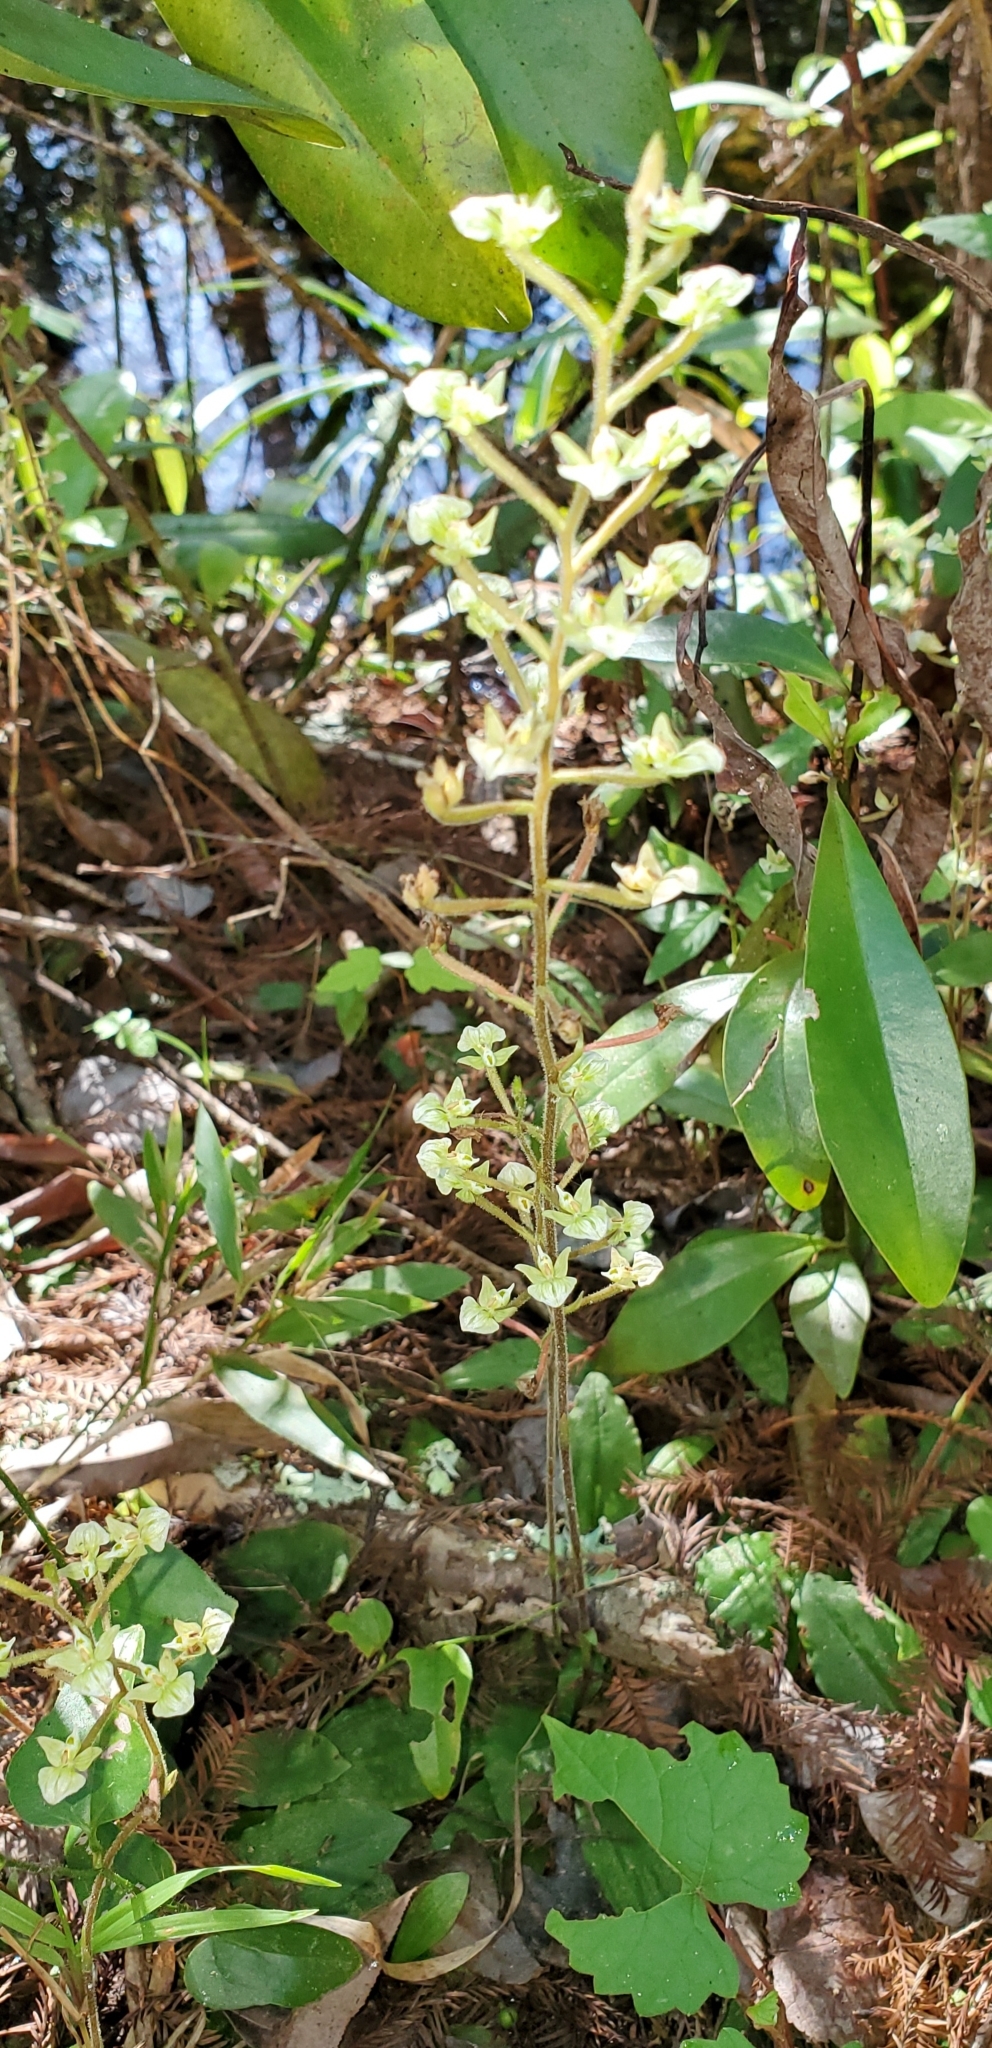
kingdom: Plantae
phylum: Tracheophyta
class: Liliopsida
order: Asparagales
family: Orchidaceae
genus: Ponthieva
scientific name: Ponthieva racemosa
